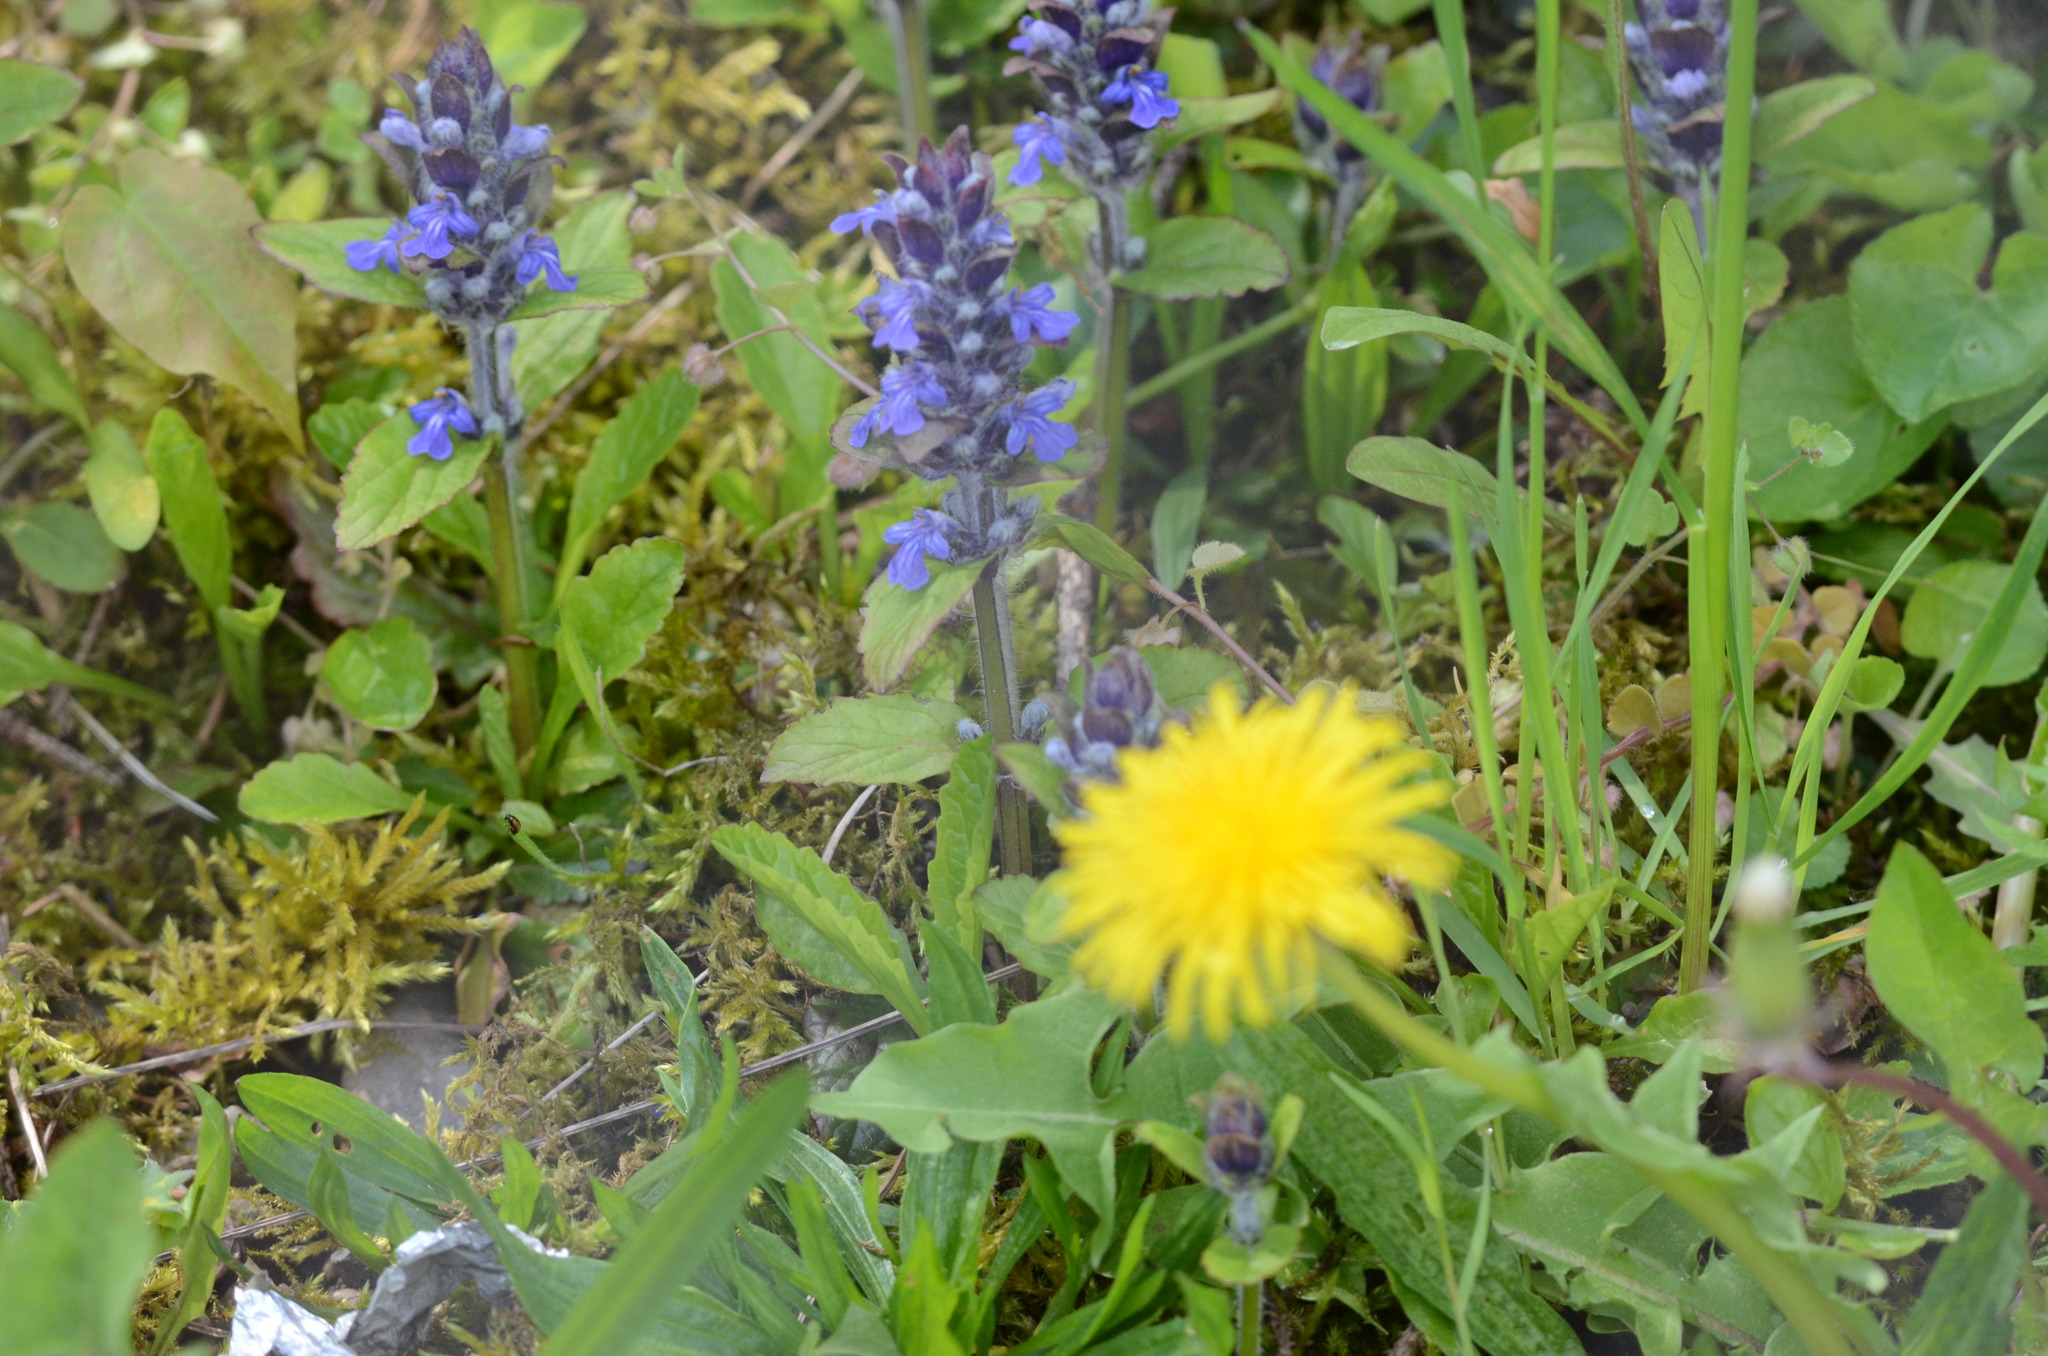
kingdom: Plantae
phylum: Tracheophyta
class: Magnoliopsida
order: Lamiales
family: Lamiaceae
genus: Ajuga
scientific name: Ajuga reptans
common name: Bugle
